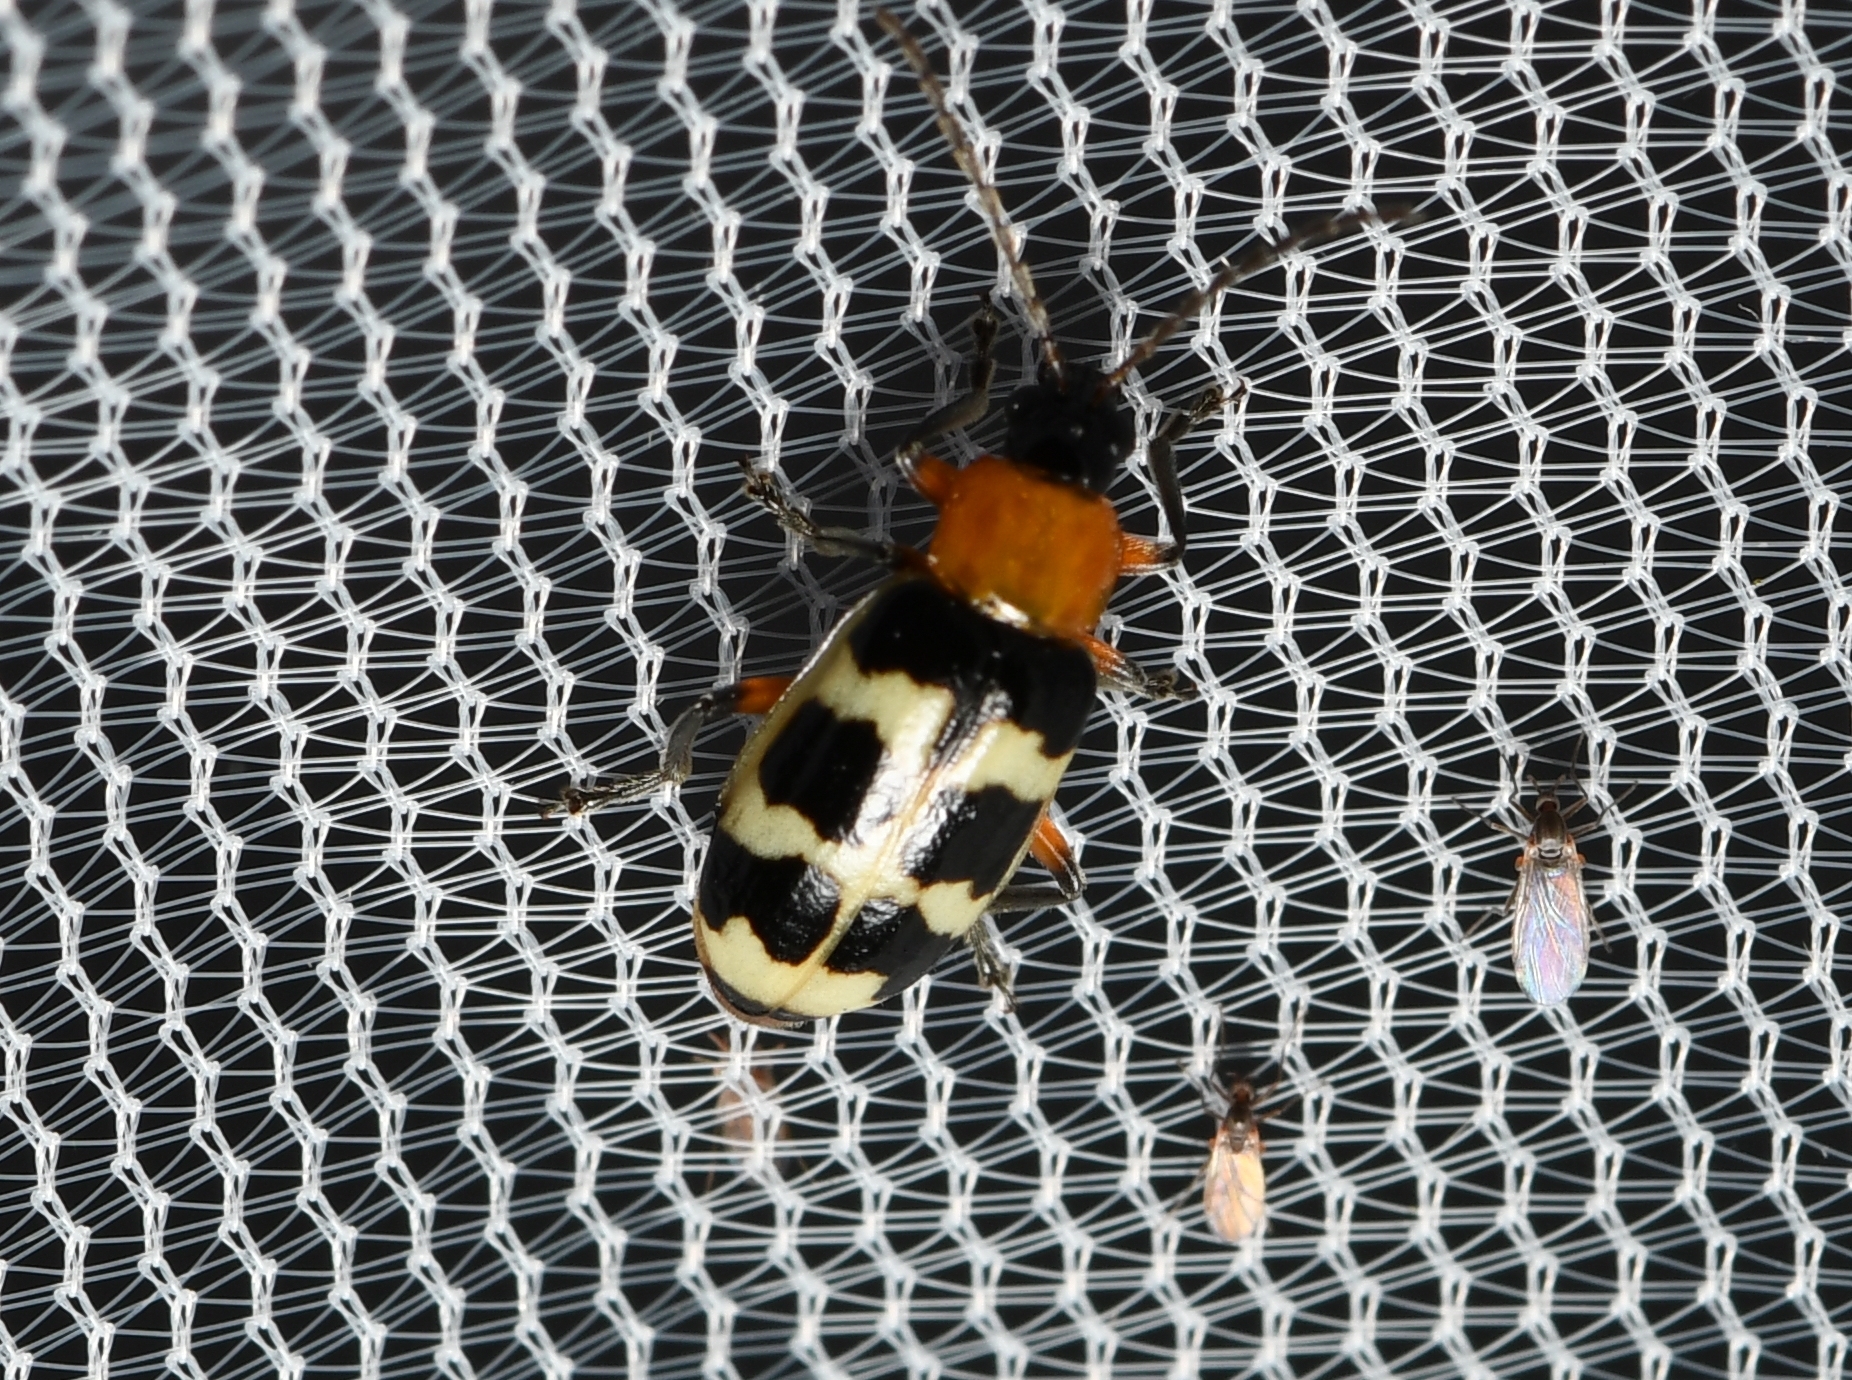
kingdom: Animalia
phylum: Arthropoda
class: Insecta
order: Coleoptera
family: Chrysomelidae
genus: Paranapiacaba
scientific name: Paranapiacaba tricincta
